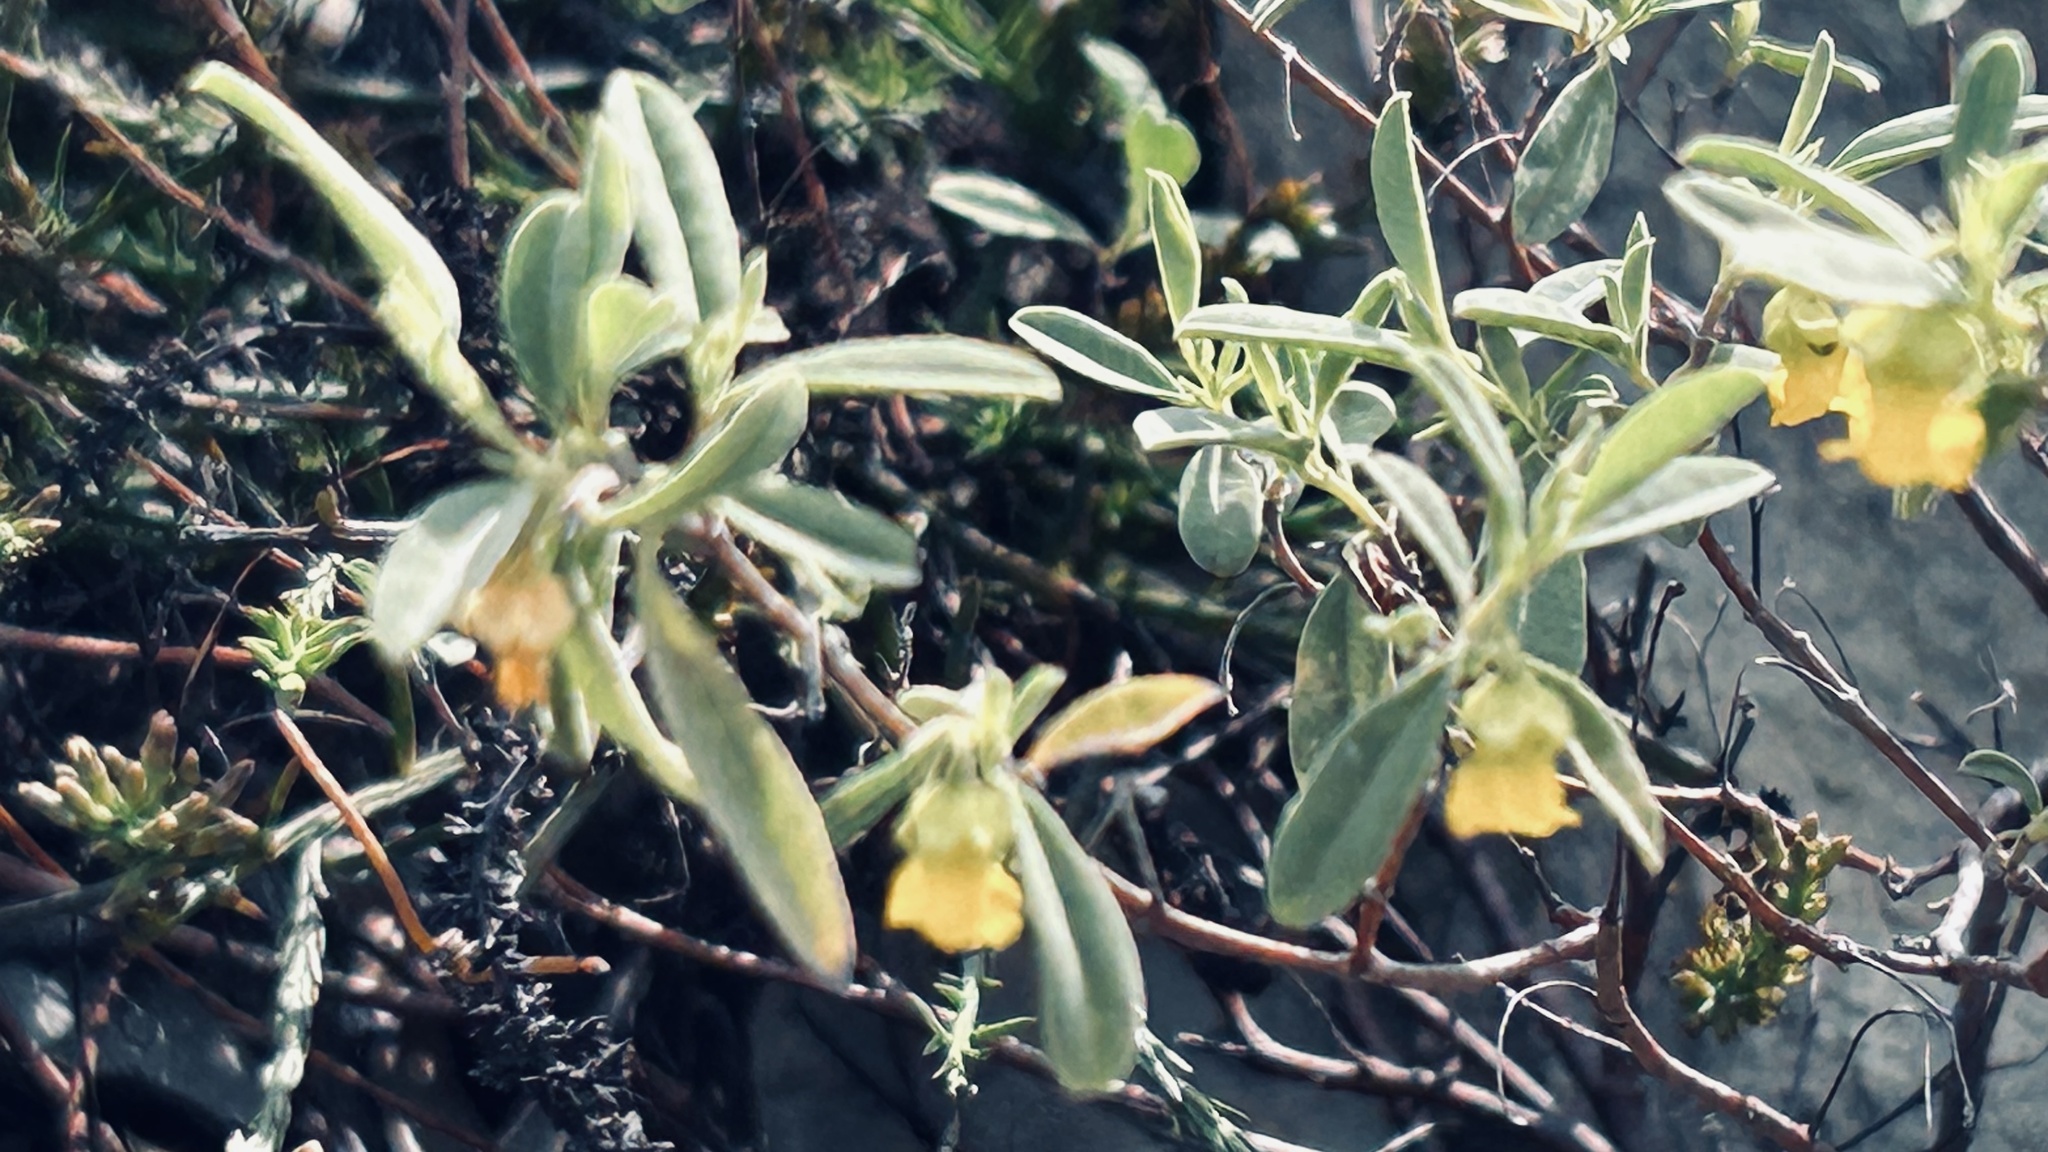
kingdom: Plantae
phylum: Tracheophyta
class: Magnoliopsida
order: Malvales
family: Malvaceae
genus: Hermannia
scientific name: Hermannia lavandulifolia
